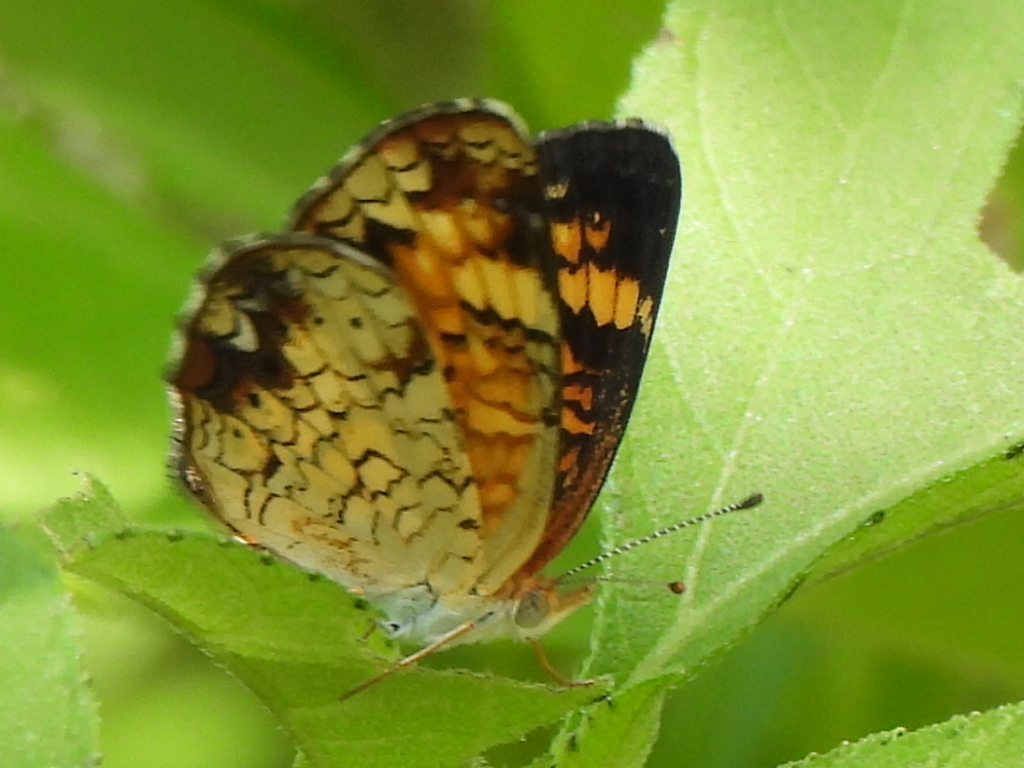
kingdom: Animalia
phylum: Arthropoda
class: Insecta
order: Lepidoptera
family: Nymphalidae
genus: Phyciodes
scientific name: Phyciodes tharos
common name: Pearl crescent
